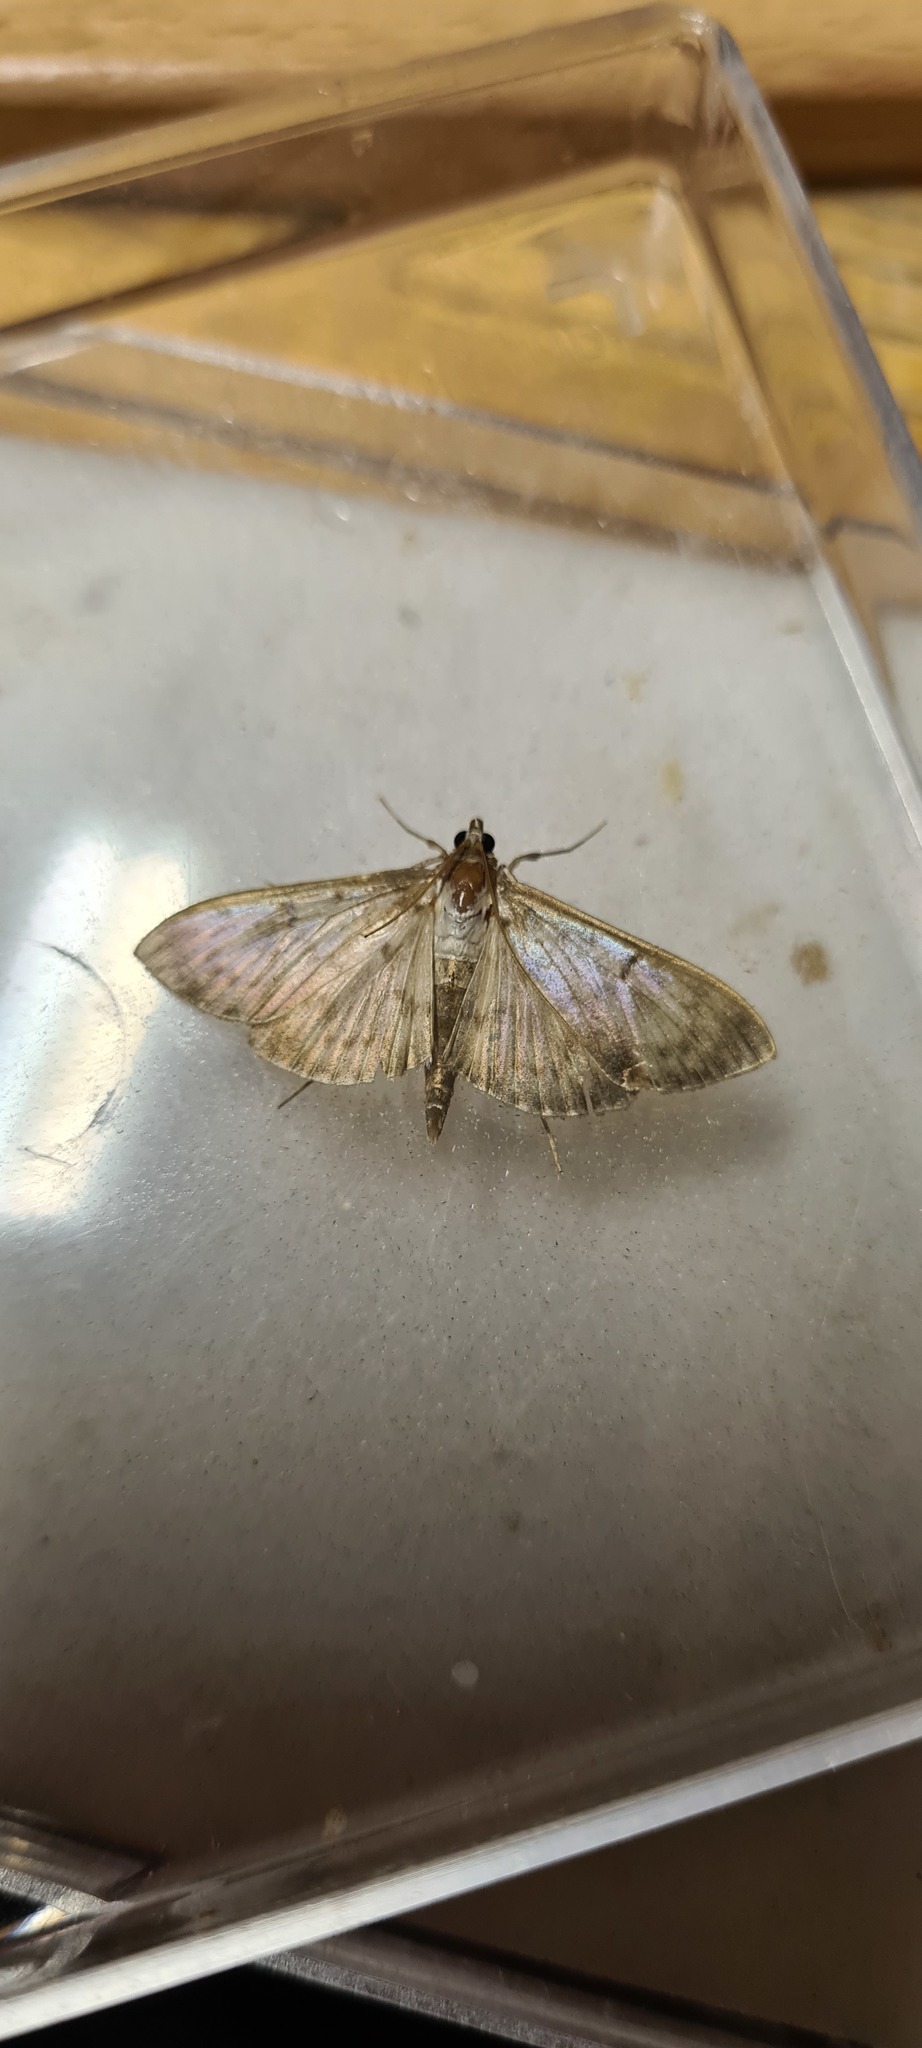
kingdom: Animalia
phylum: Arthropoda
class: Insecta
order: Lepidoptera
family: Crambidae
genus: Patania
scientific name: Patania ruralis
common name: Mother of pearl
